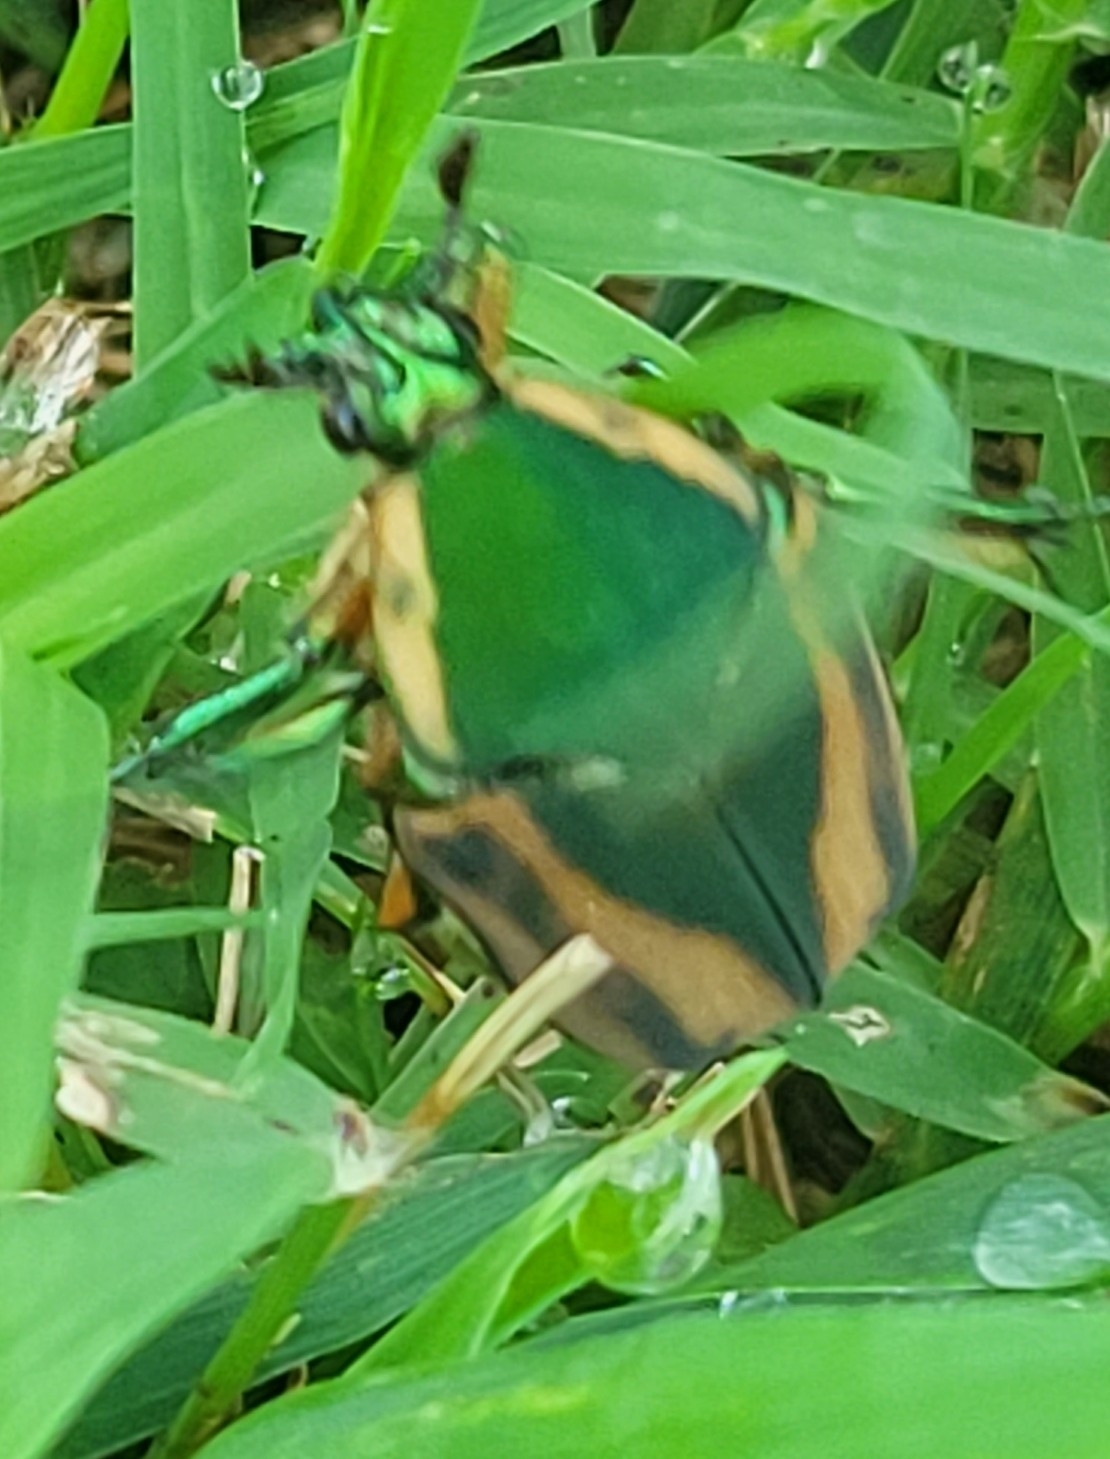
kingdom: Animalia
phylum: Arthropoda
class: Insecta
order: Coleoptera
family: Scarabaeidae
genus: Cotinis
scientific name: Cotinis nitida
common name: Common green june beetle
